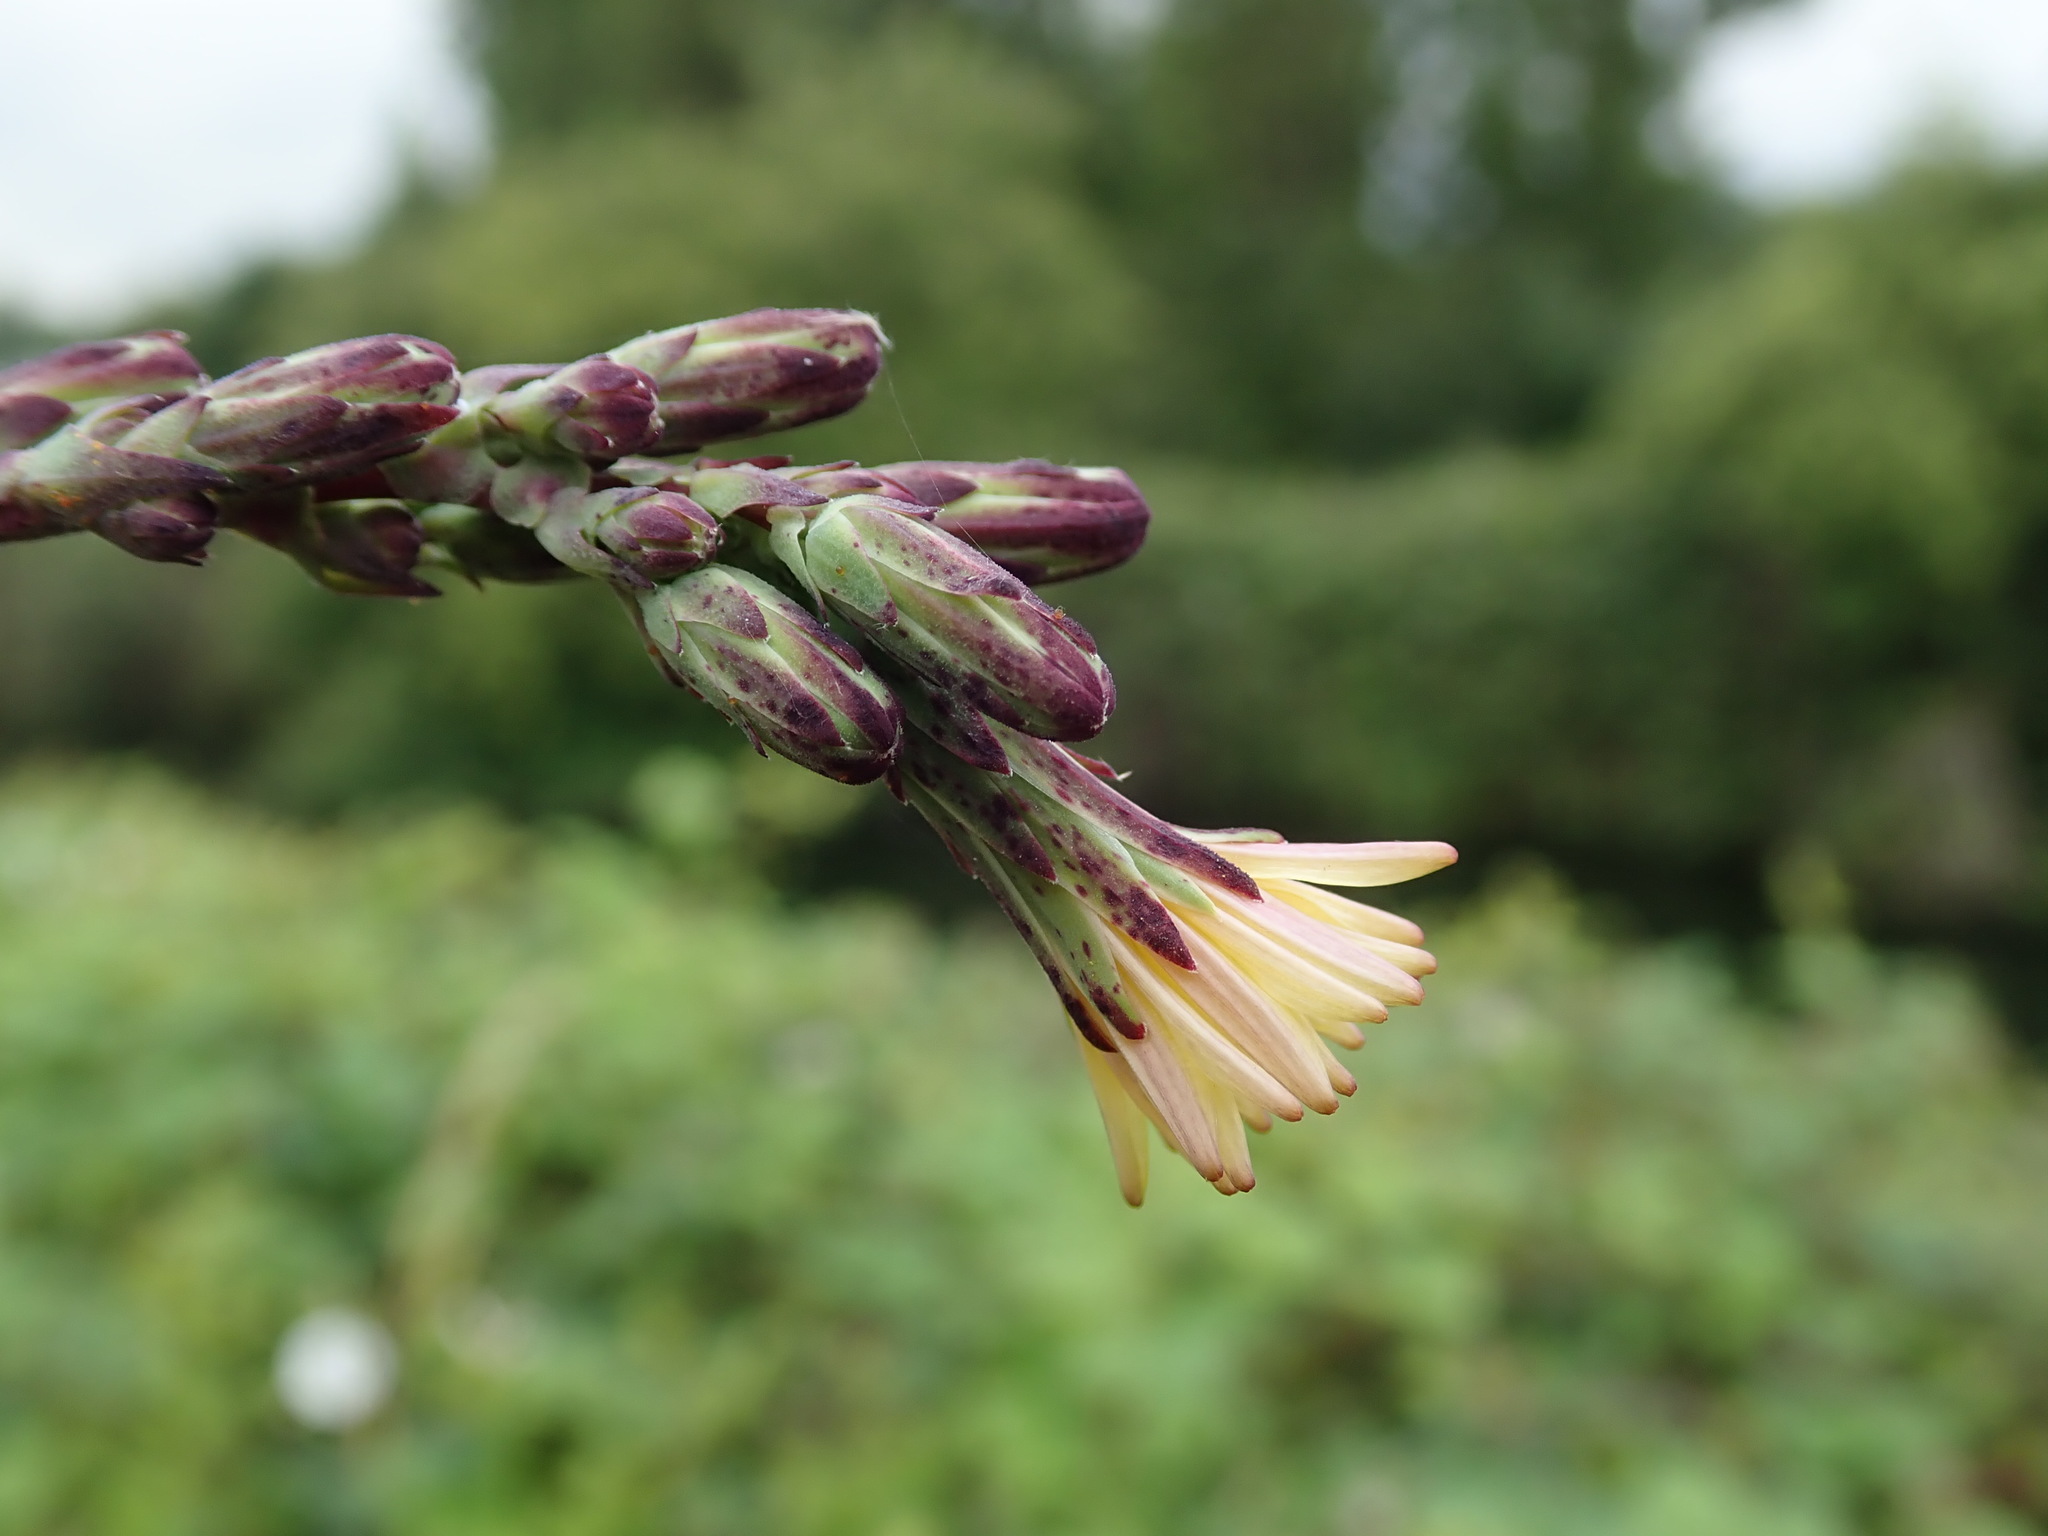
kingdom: Plantae
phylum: Tracheophyta
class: Magnoliopsida
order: Asterales
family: Asteraceae
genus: Lactuca
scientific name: Lactuca virosa
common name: Great lettuce
